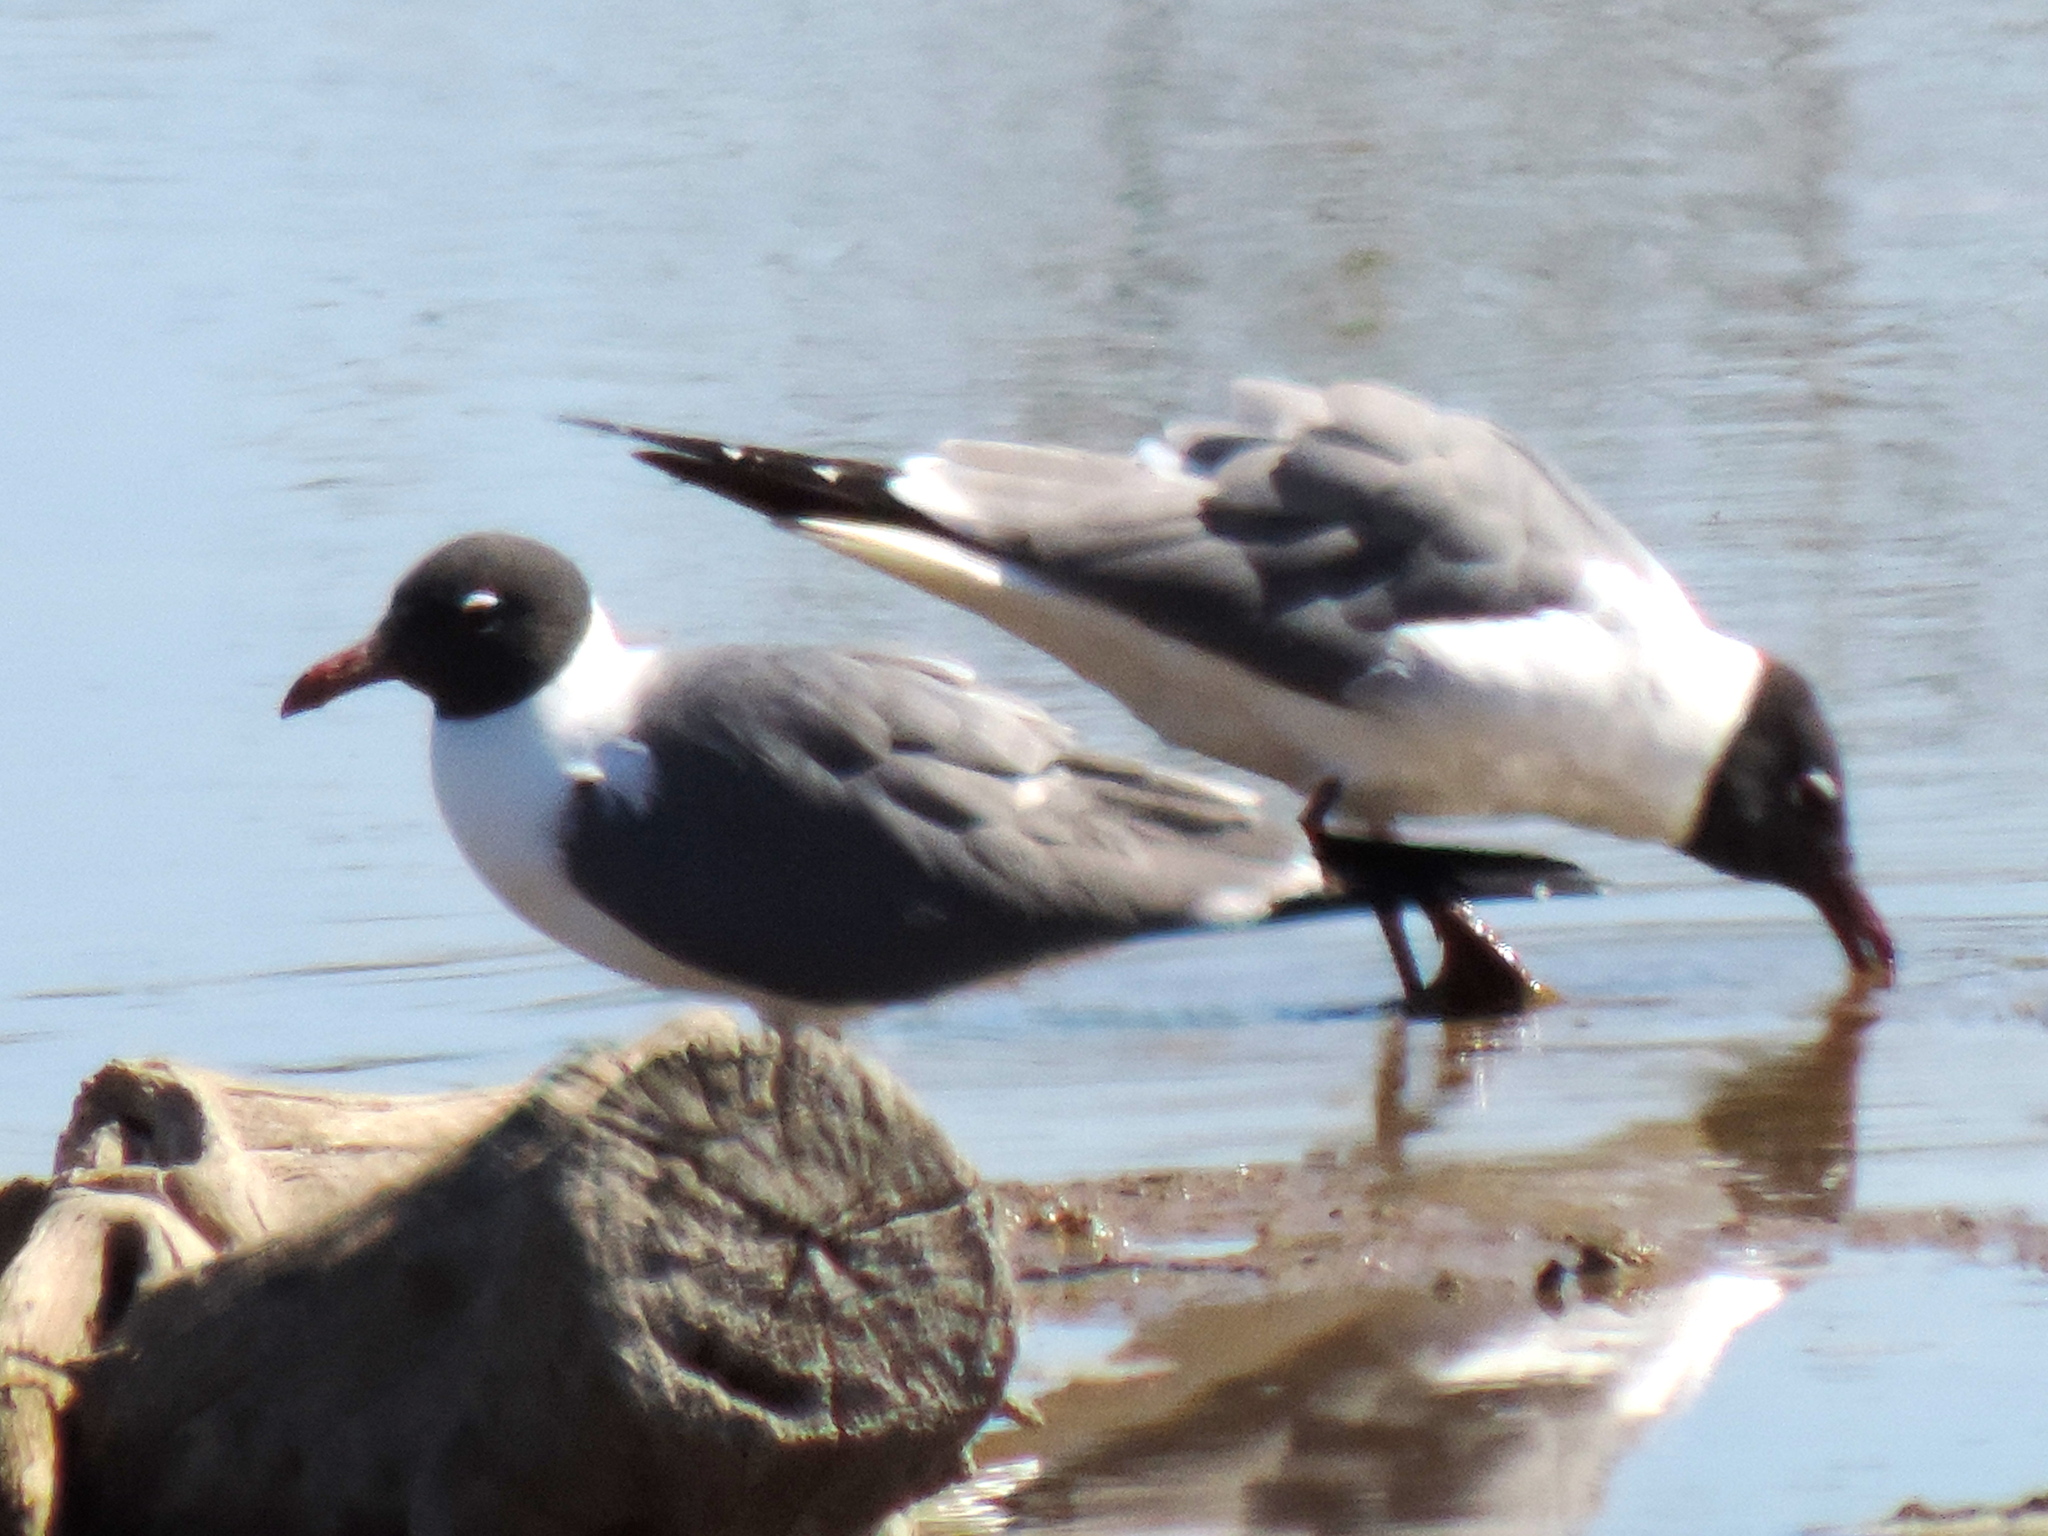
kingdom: Animalia
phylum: Chordata
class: Aves
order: Charadriiformes
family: Laridae
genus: Leucophaeus
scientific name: Leucophaeus atricilla
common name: Laughing gull
